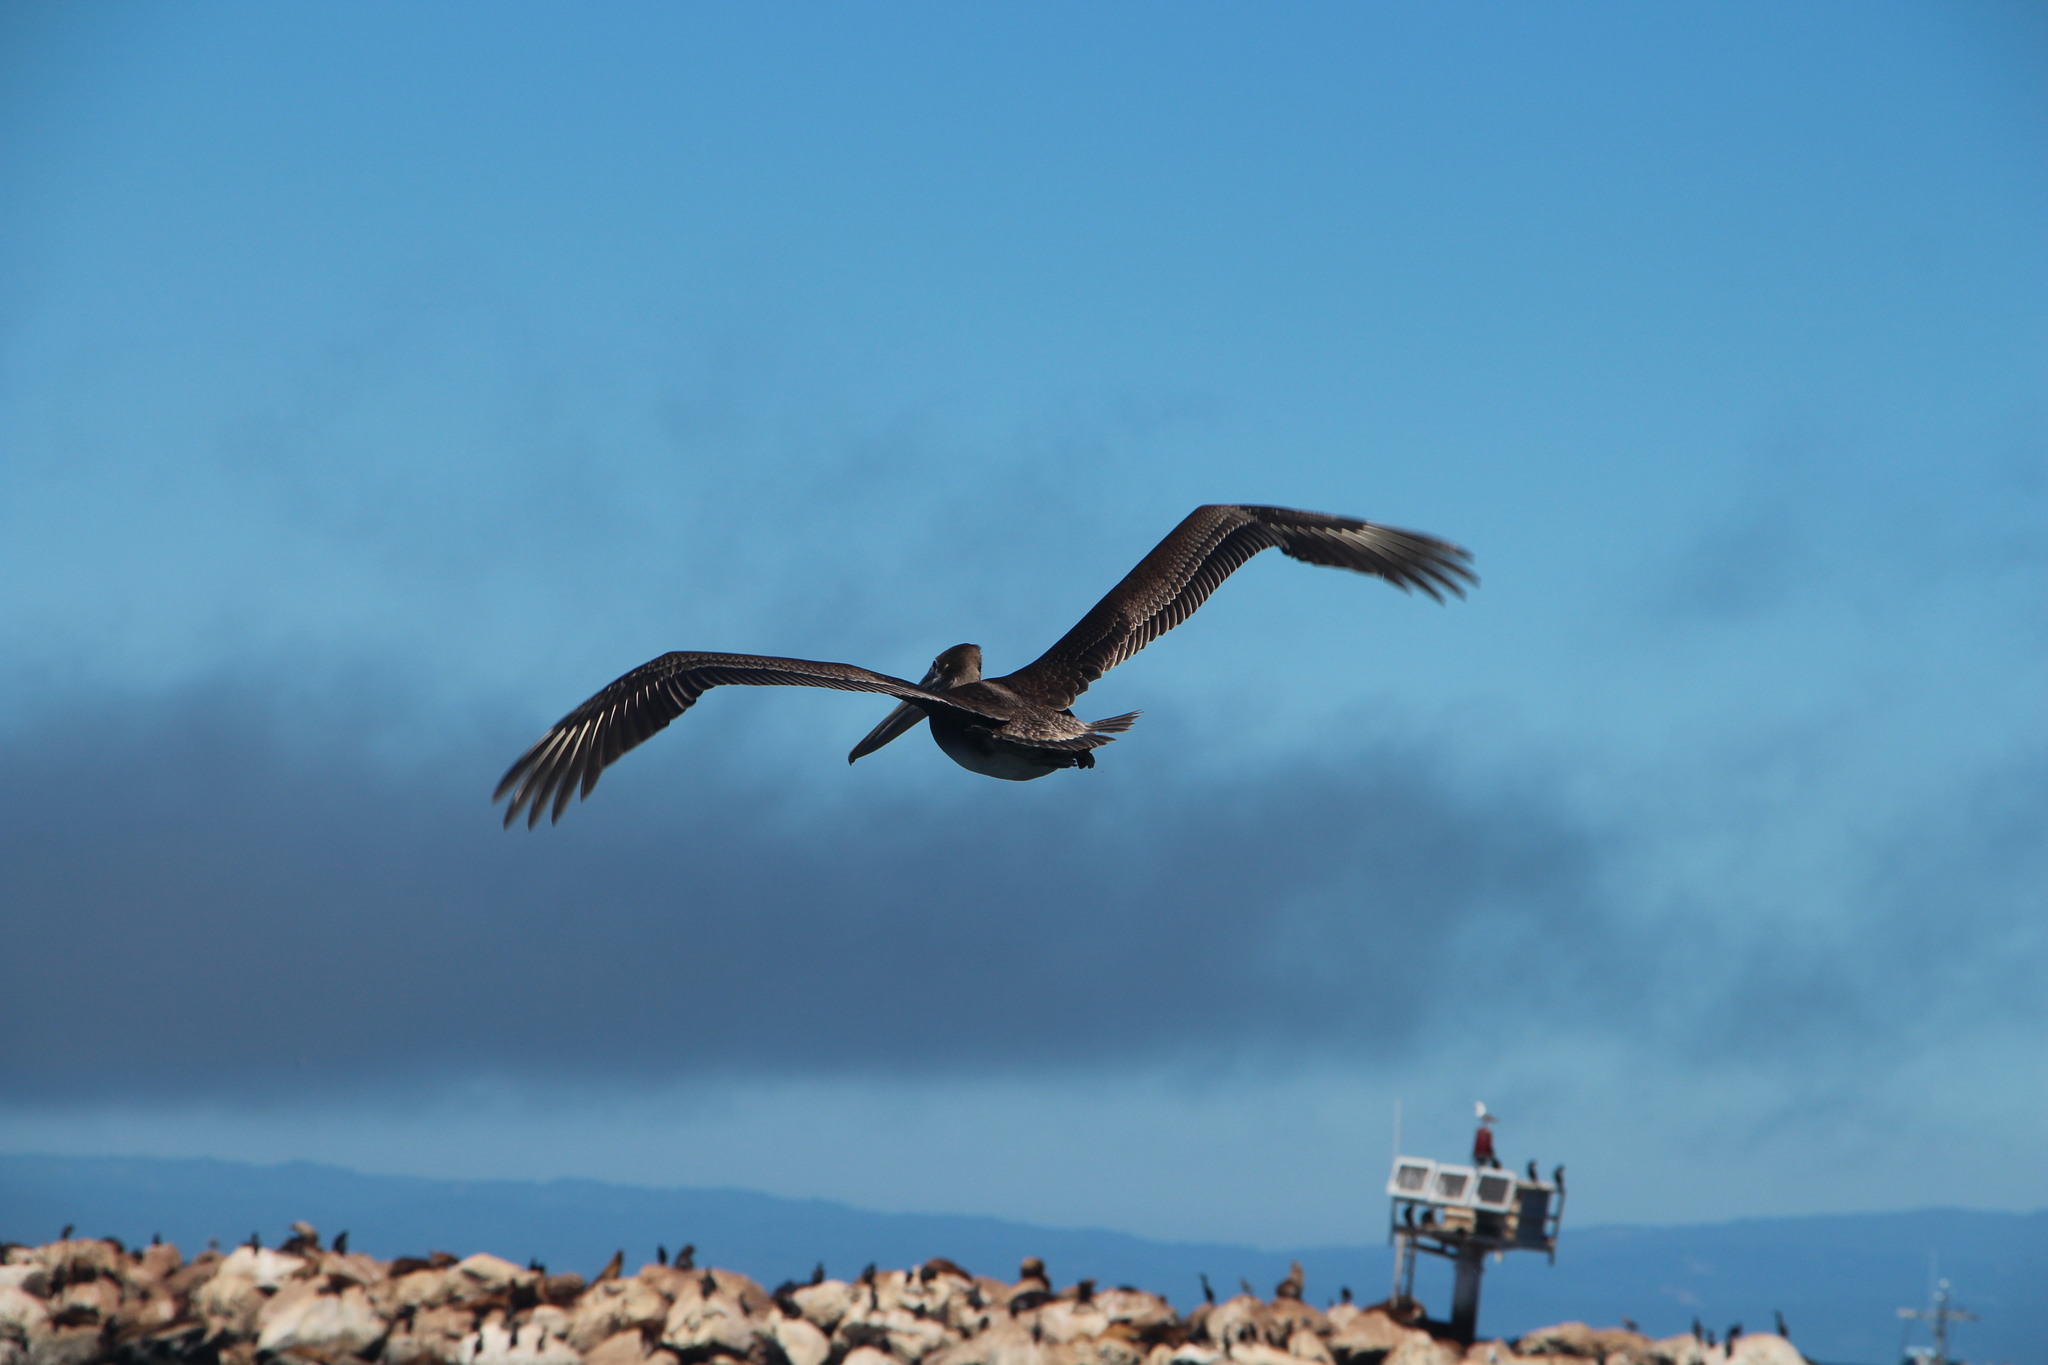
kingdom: Animalia
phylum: Chordata
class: Aves
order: Pelecaniformes
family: Pelecanidae
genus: Pelecanus
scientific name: Pelecanus occidentalis
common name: Brown pelican
